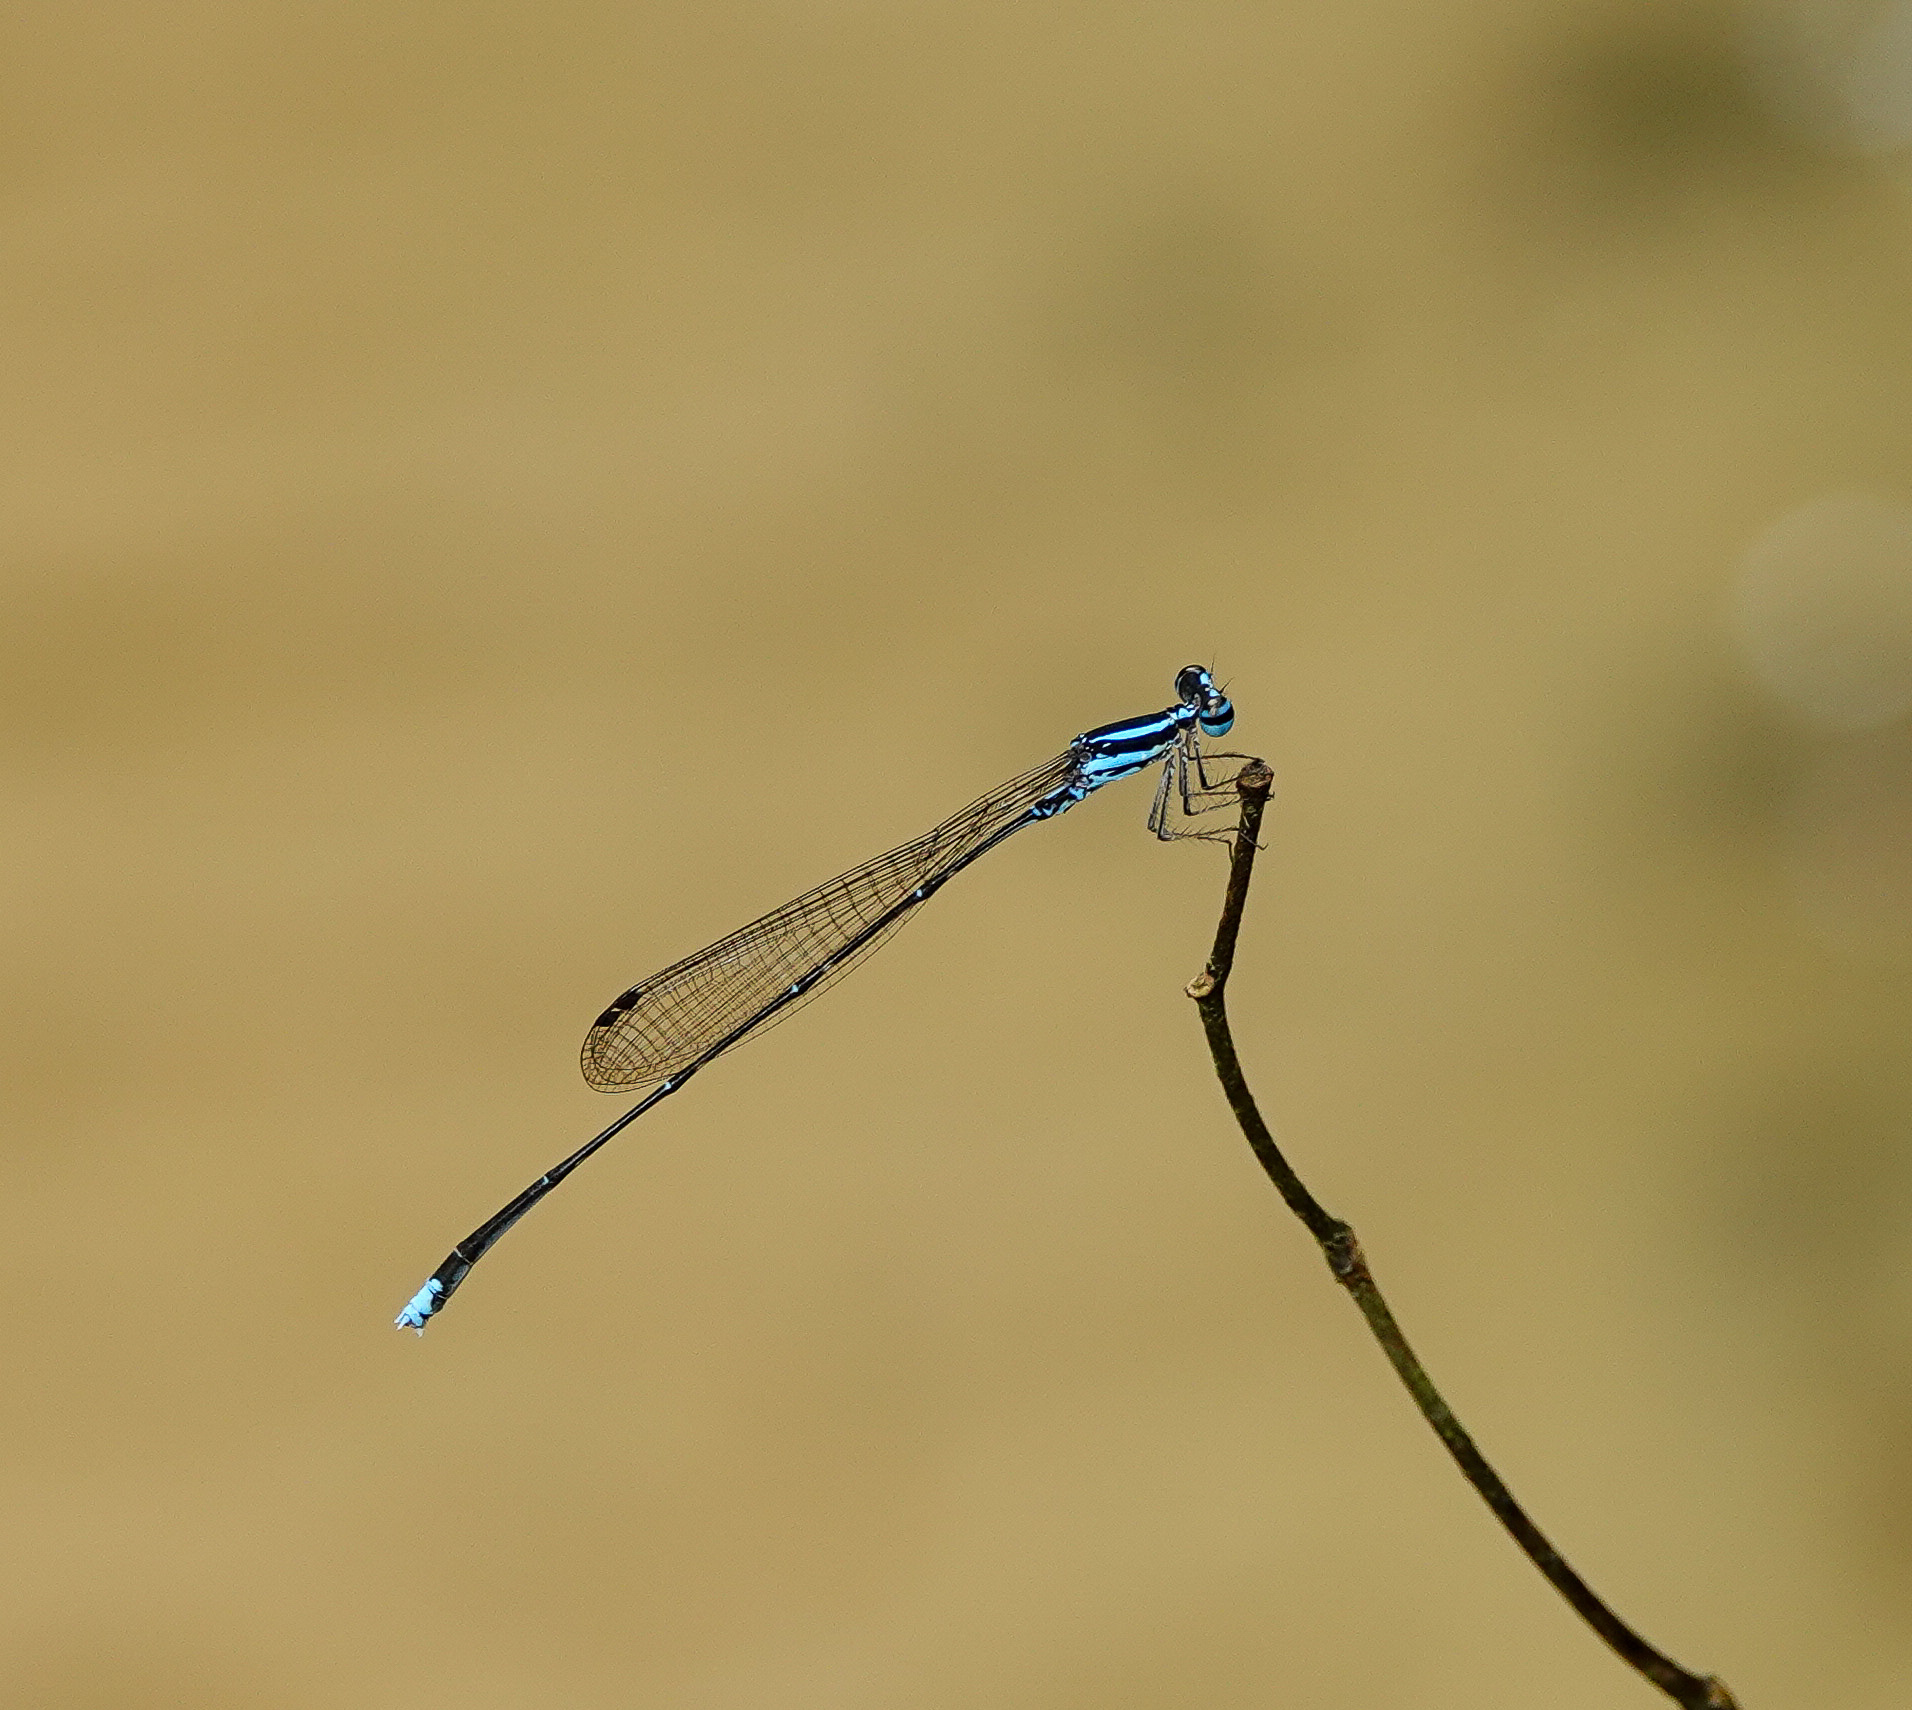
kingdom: Animalia
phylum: Arthropoda
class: Insecta
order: Odonata
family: Platycnemididae
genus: Elattoneura
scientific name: Elattoneura campioni
